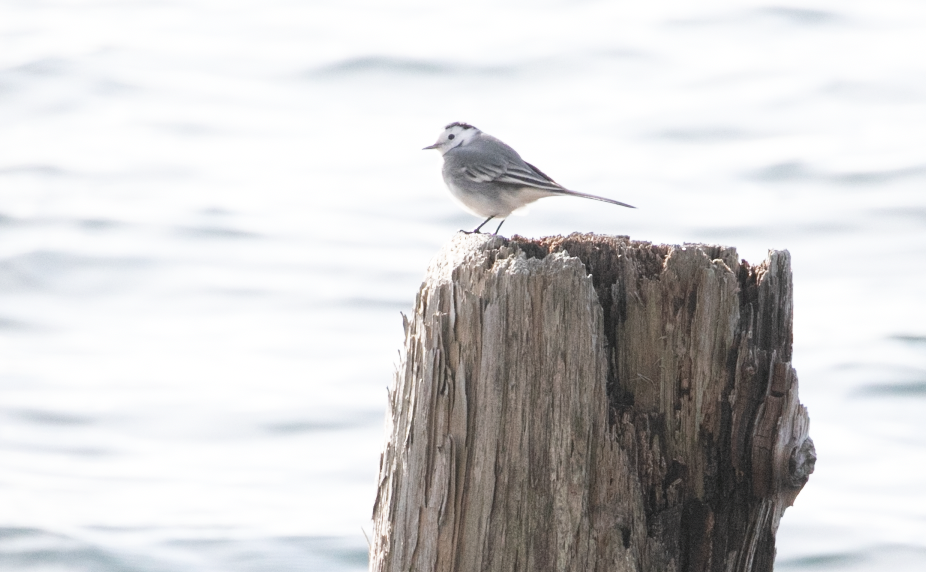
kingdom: Animalia
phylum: Chordata
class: Aves
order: Passeriformes
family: Motacillidae
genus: Motacilla
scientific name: Motacilla alba
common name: White wagtail
